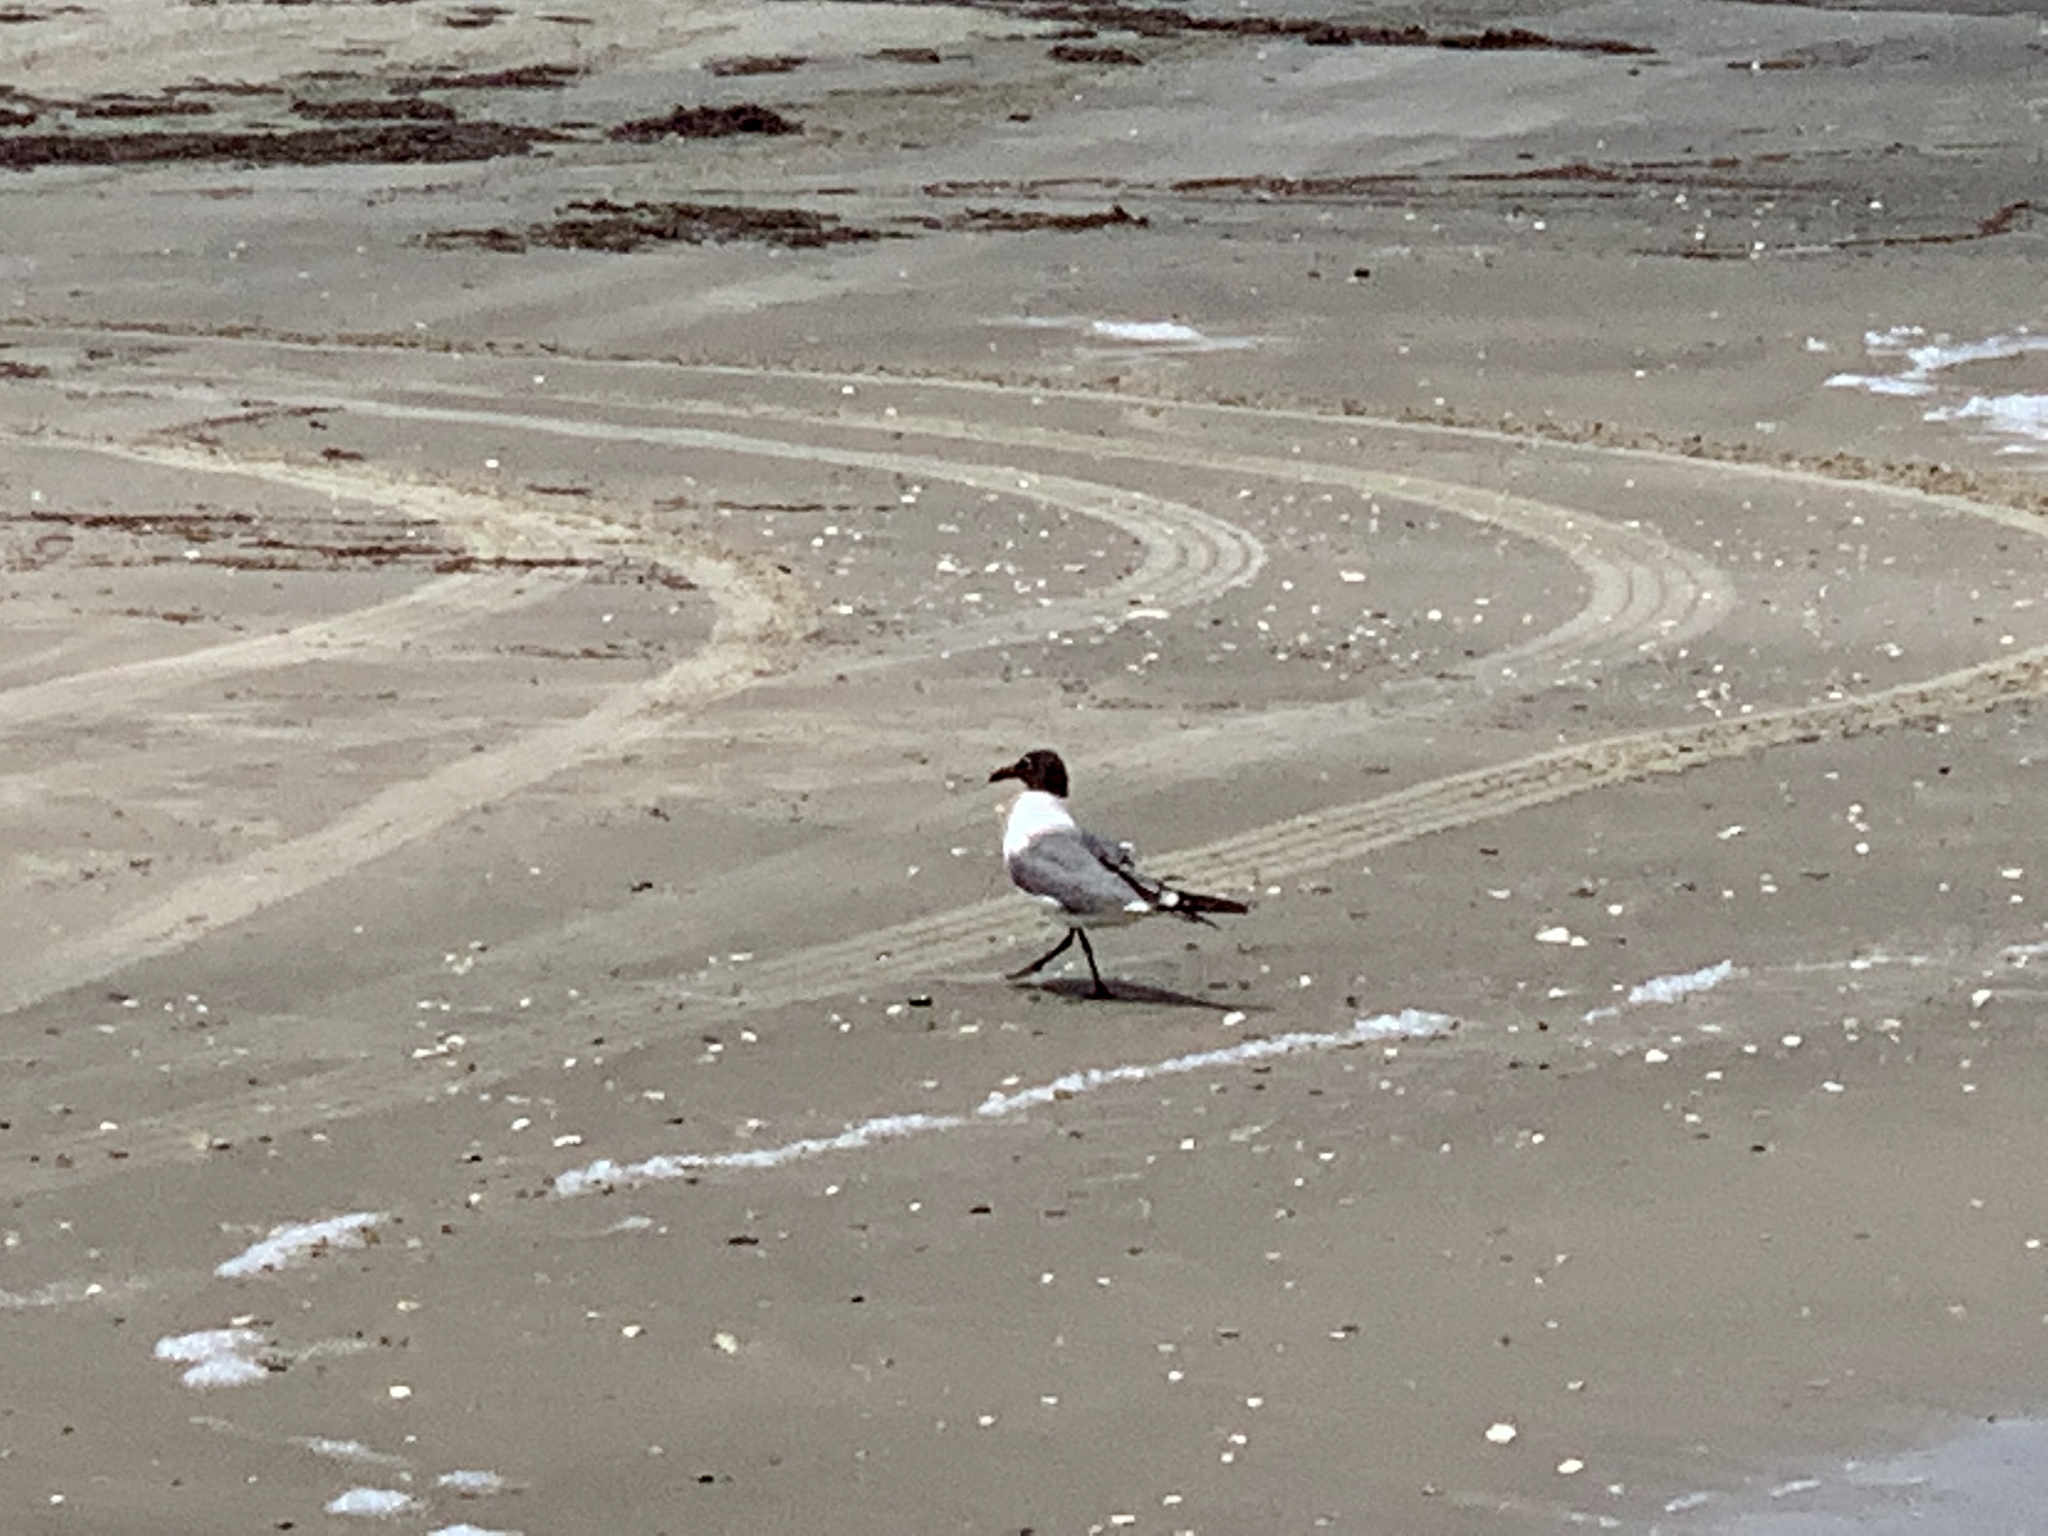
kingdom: Animalia
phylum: Chordata
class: Aves
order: Charadriiformes
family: Laridae
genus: Leucophaeus
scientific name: Leucophaeus atricilla
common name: Laughing gull
